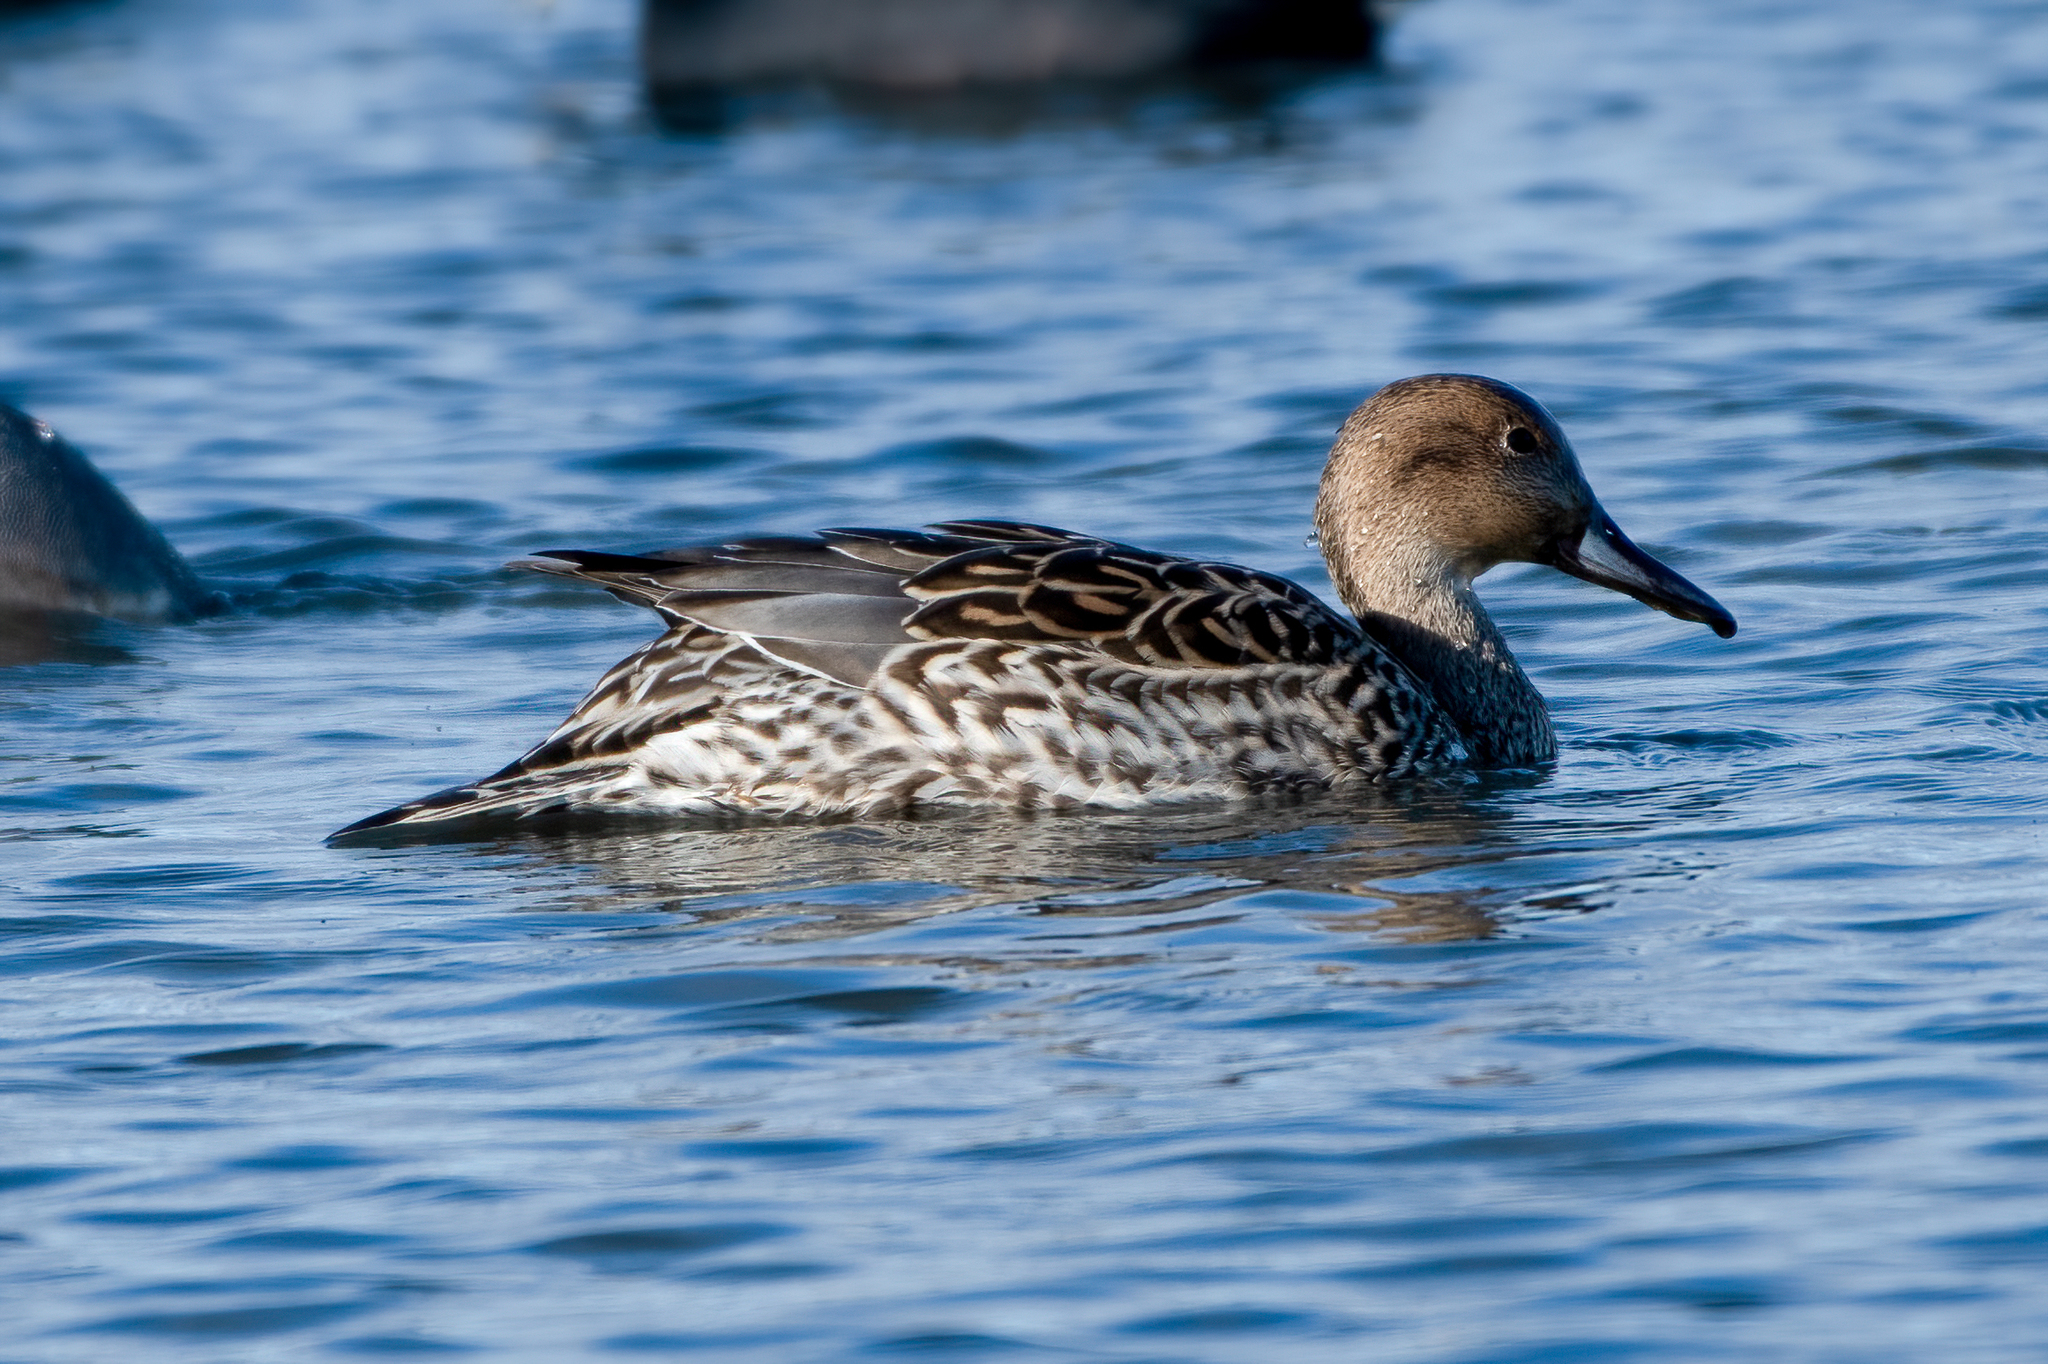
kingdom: Animalia
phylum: Chordata
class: Aves
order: Anseriformes
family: Anatidae
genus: Anas
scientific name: Anas acuta
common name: Northern pintail
